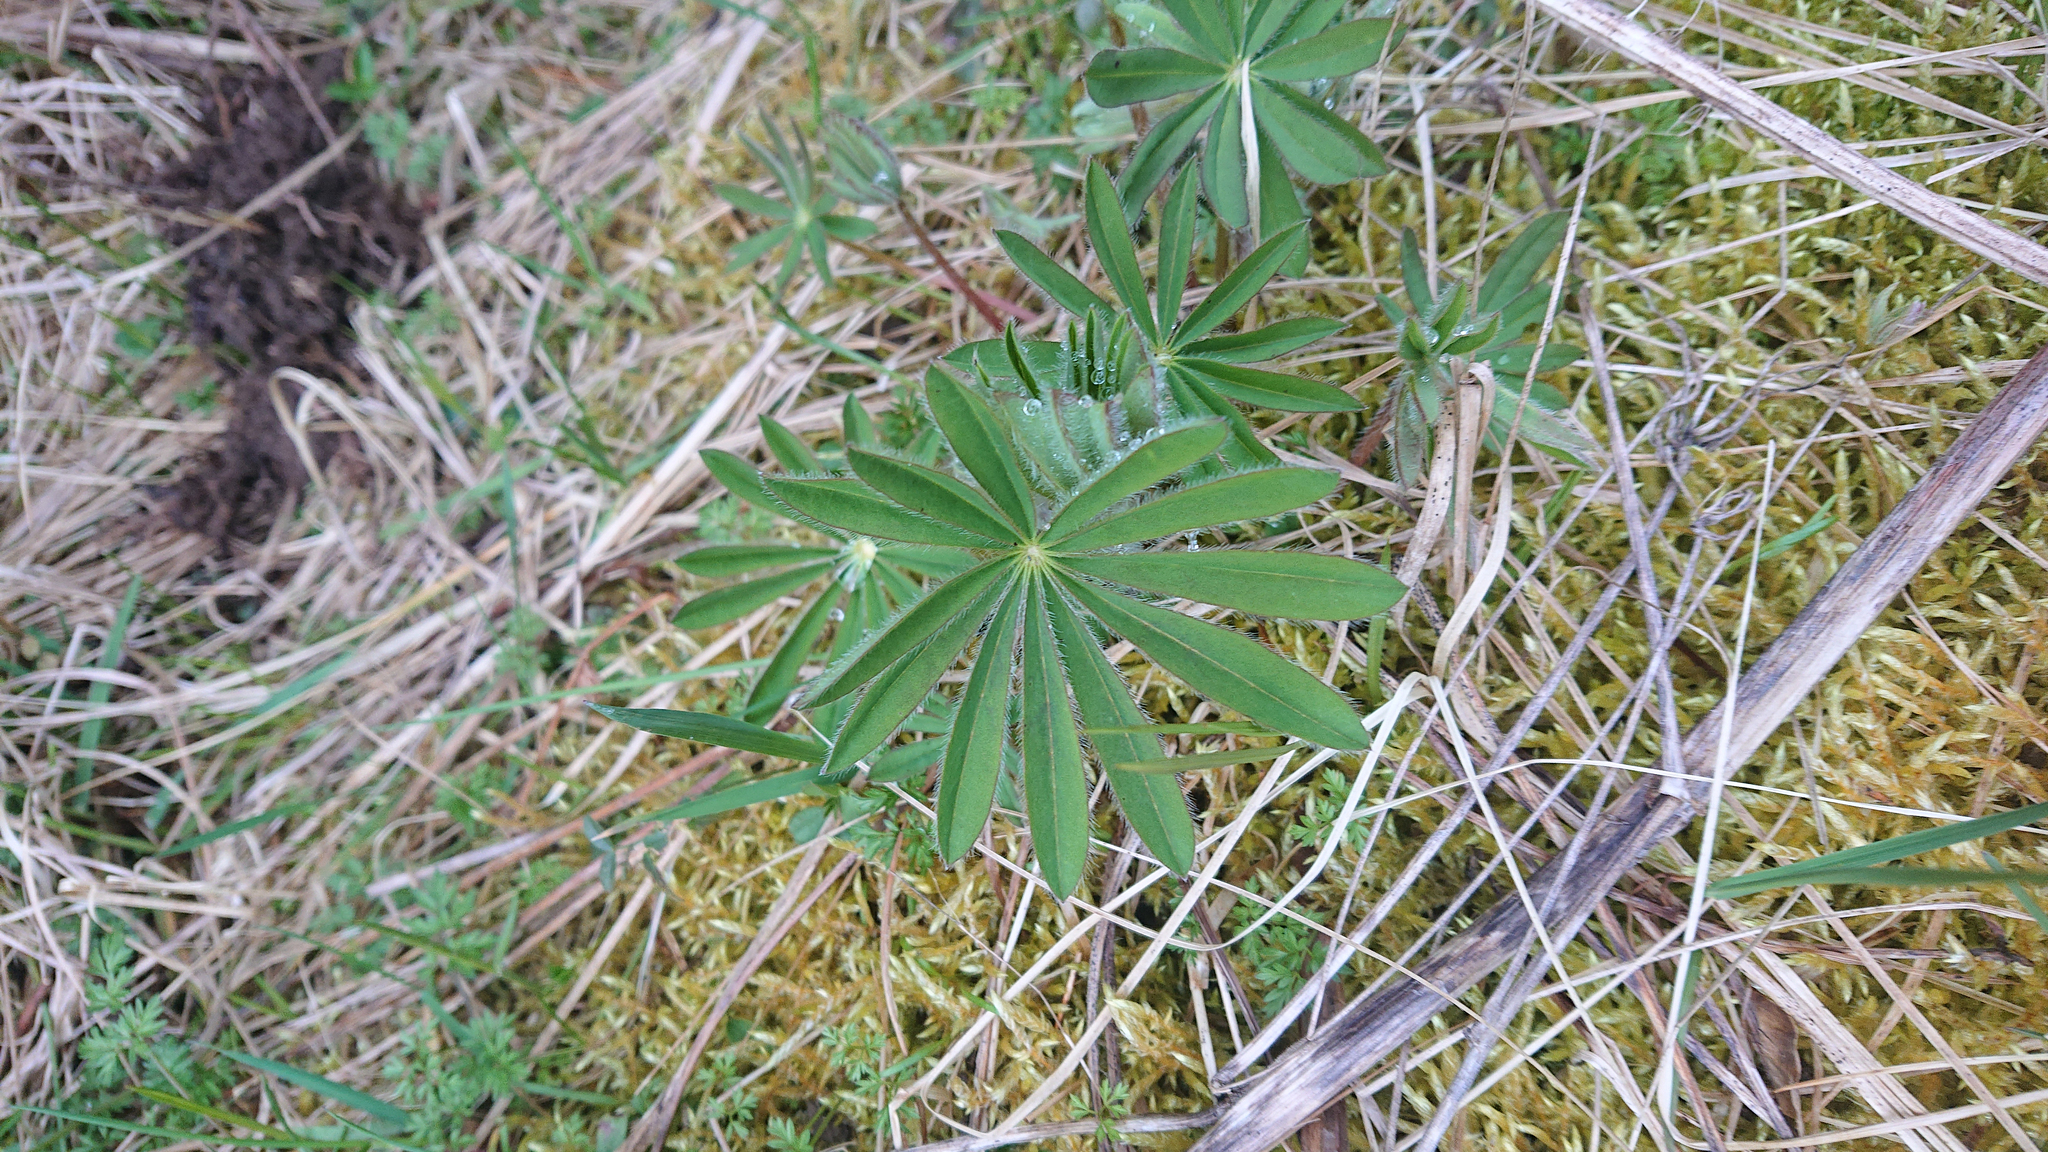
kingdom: Plantae
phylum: Tracheophyta
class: Magnoliopsida
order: Fabales
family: Fabaceae
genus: Lupinus
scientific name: Lupinus polyphyllus
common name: Garden lupin
